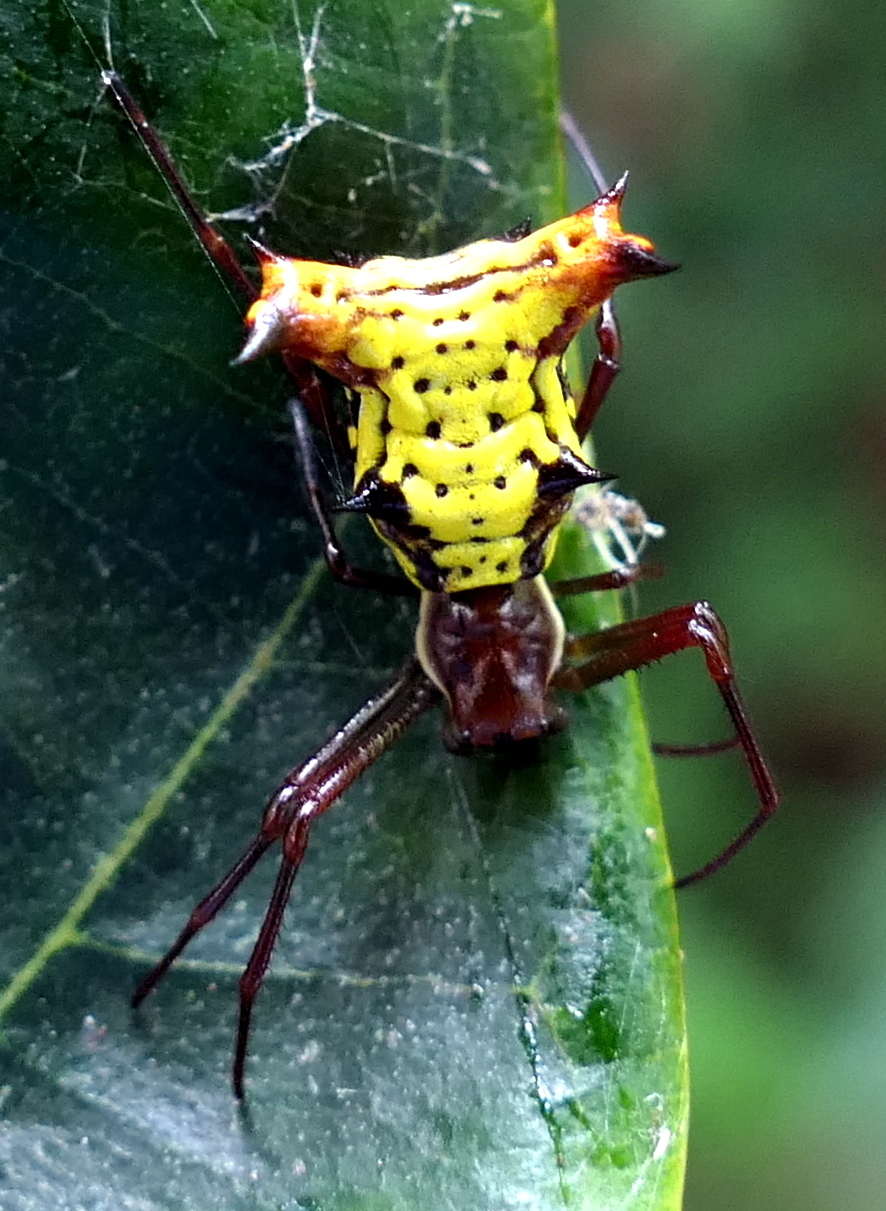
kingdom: Animalia
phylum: Arthropoda
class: Arachnida
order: Araneae
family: Araneidae
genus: Micrathena
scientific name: Micrathena fissispina
